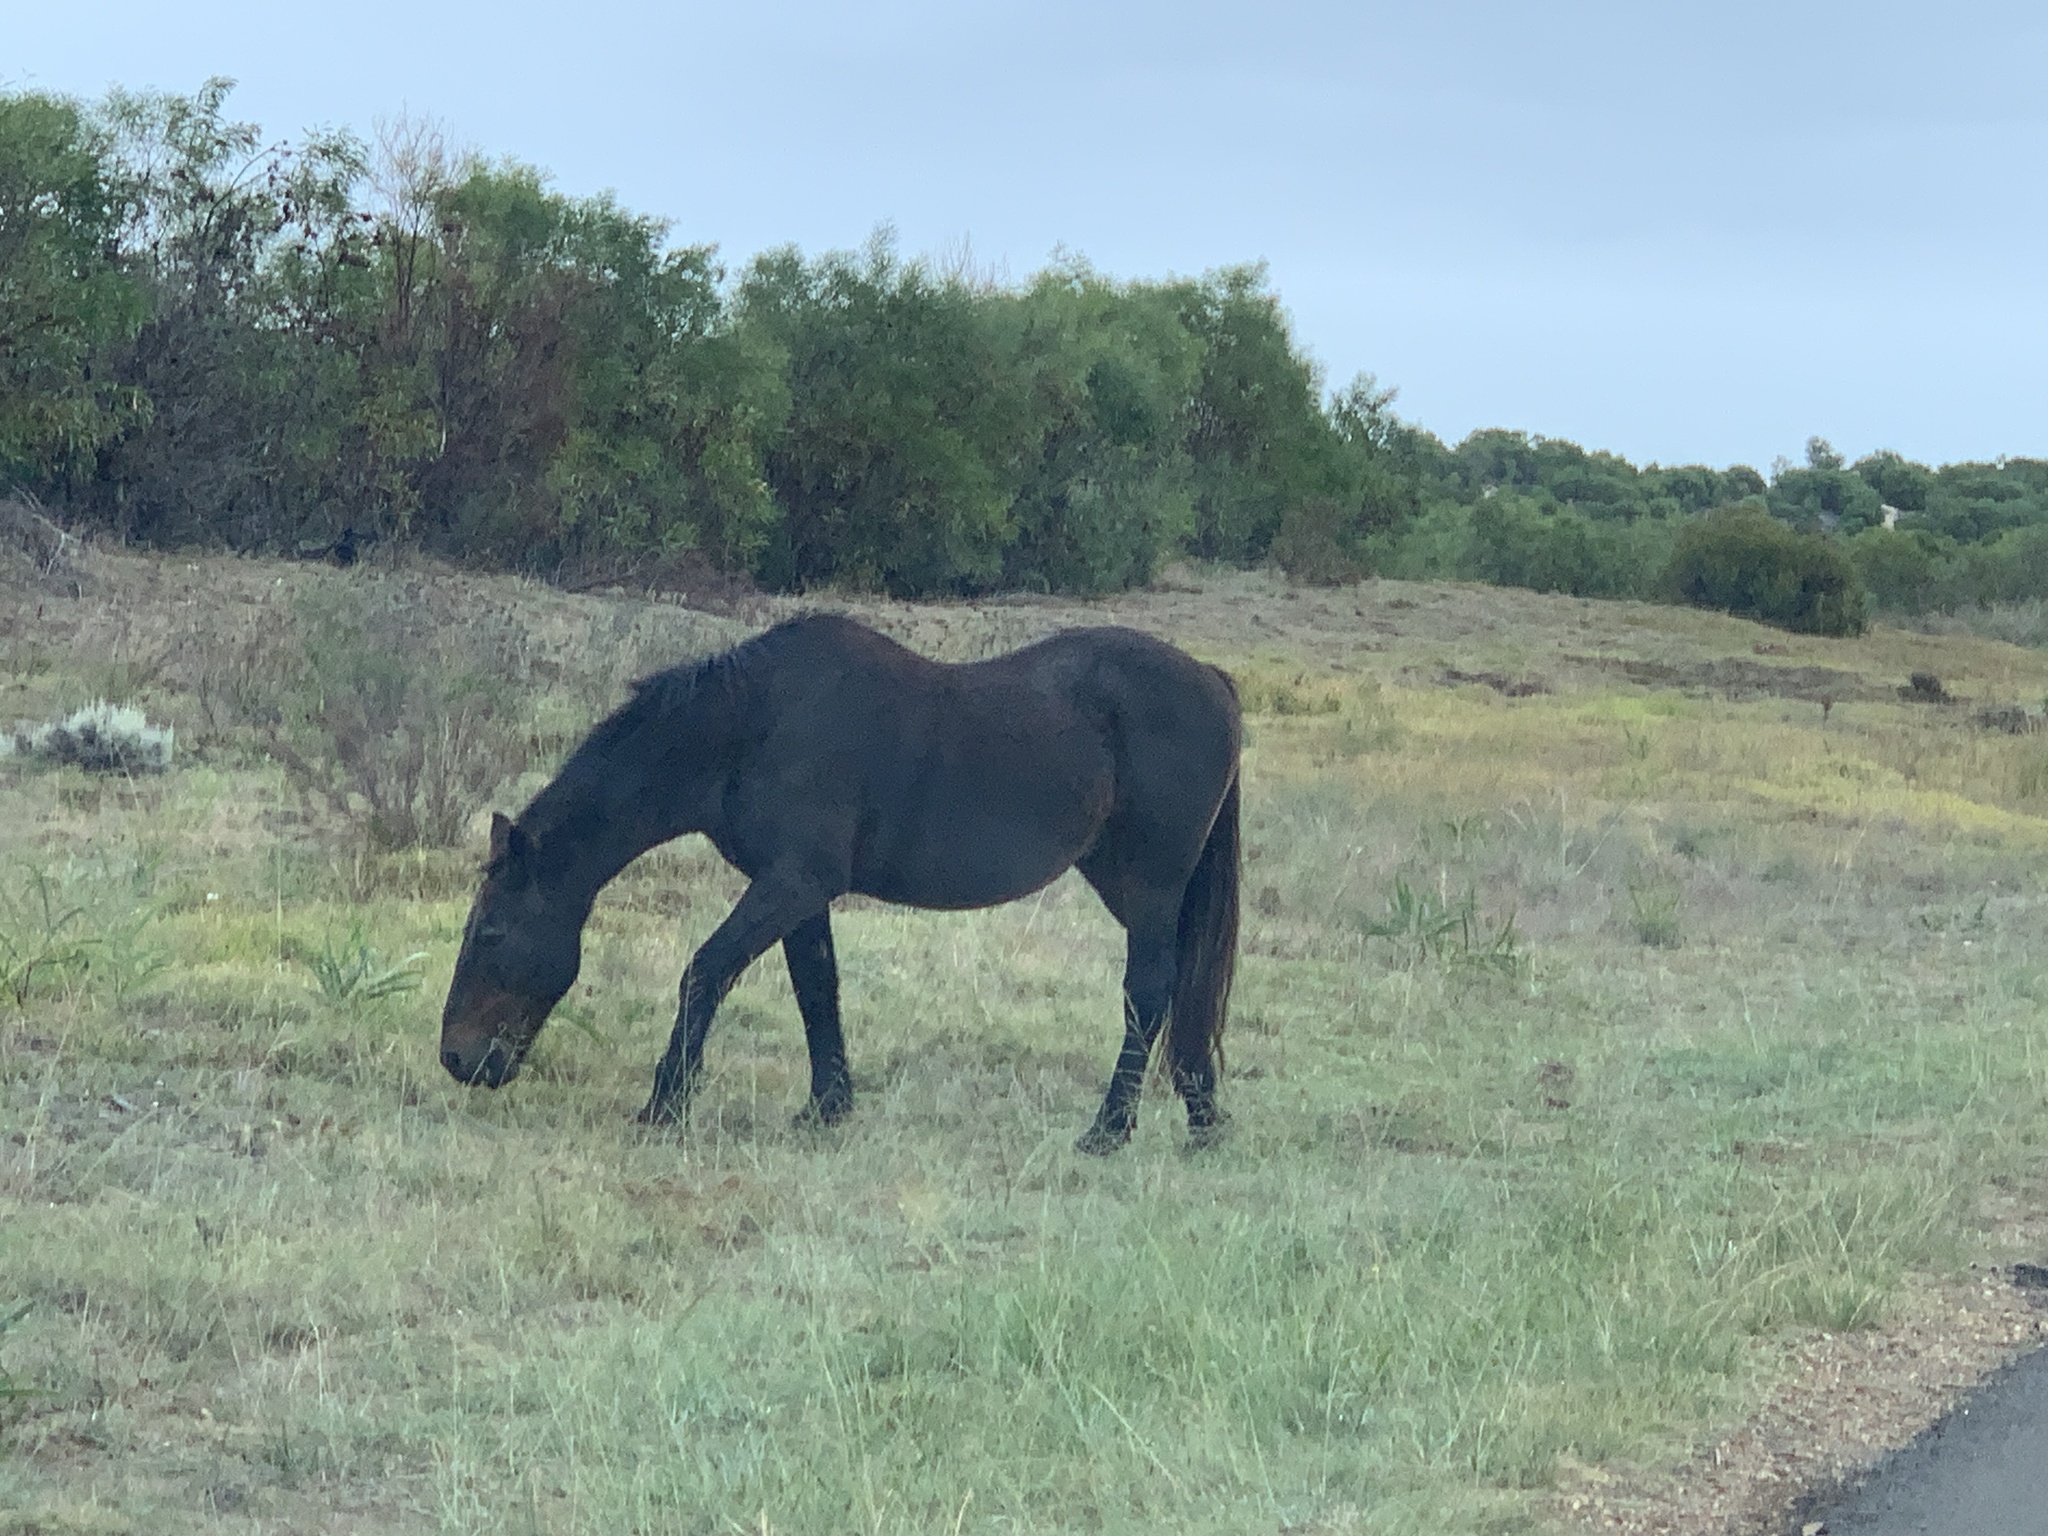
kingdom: Animalia
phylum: Chordata
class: Mammalia
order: Perissodactyla
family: Equidae
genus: Equus
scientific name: Equus caballus
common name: Horse
